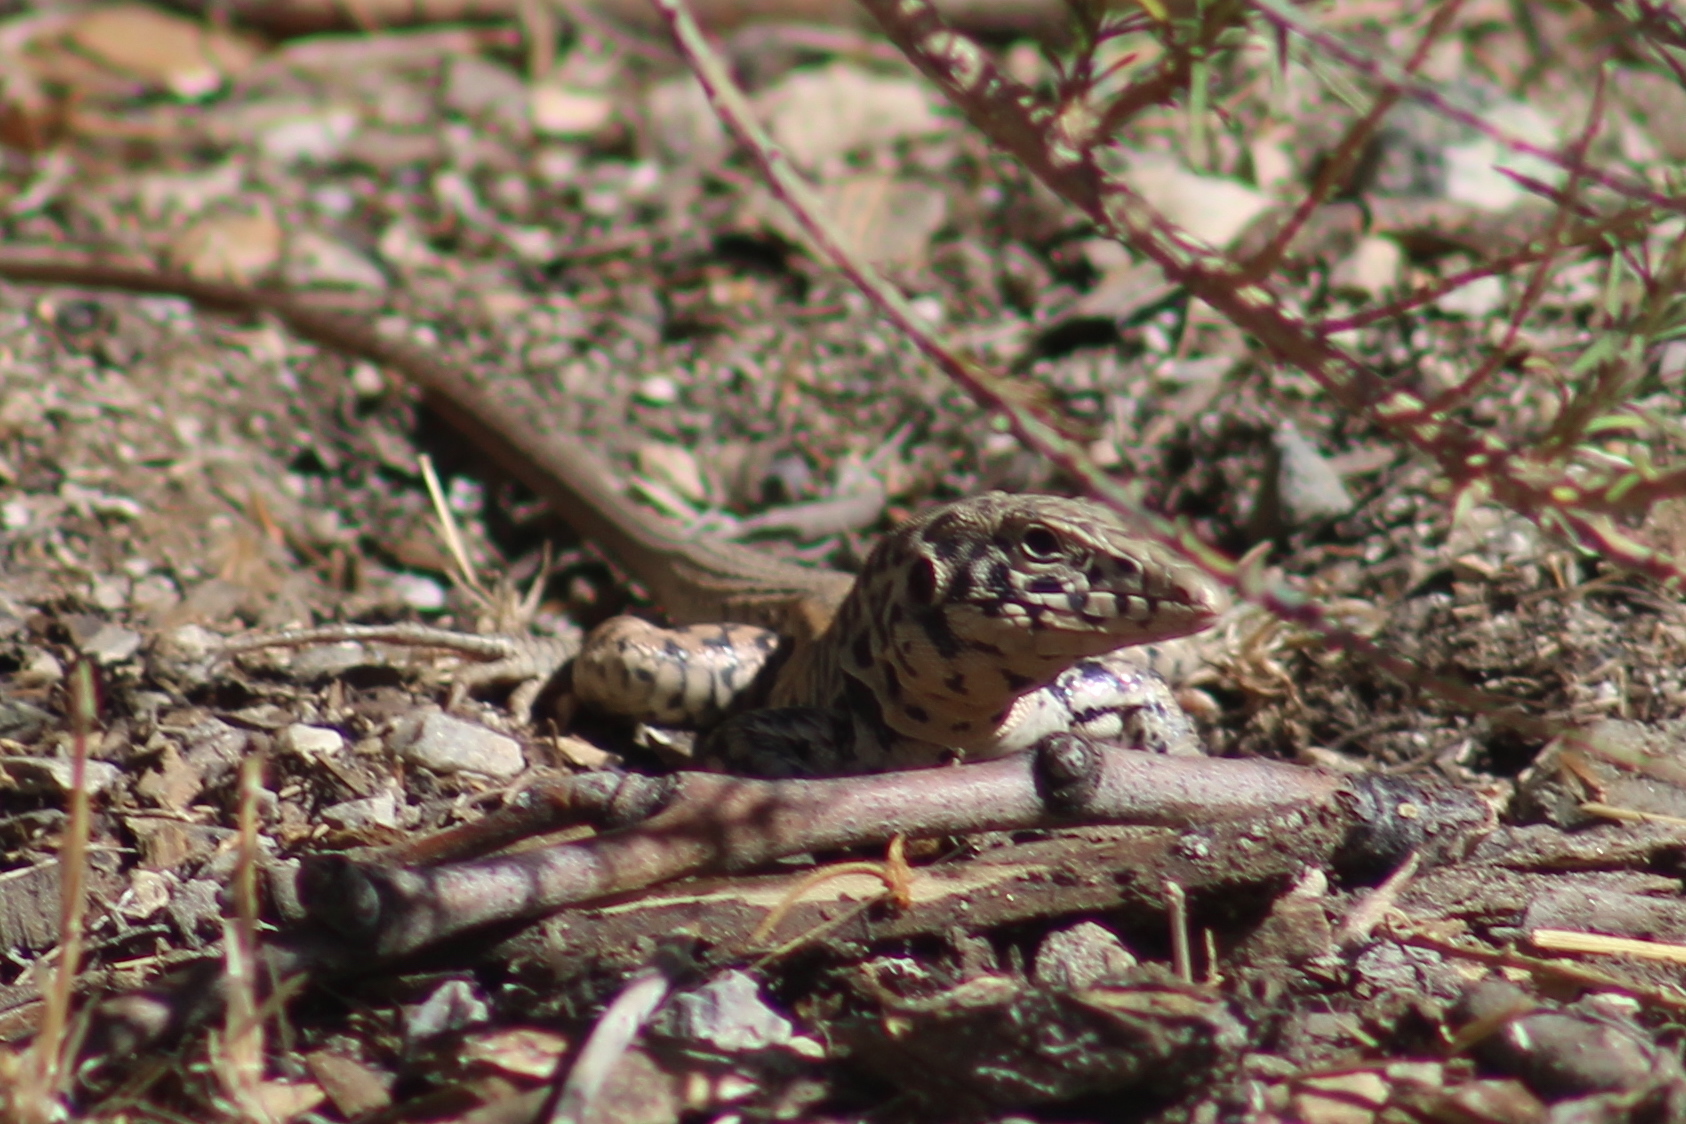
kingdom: Animalia
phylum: Chordata
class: Squamata
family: Teiidae
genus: Aspidoscelis
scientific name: Aspidoscelis tigris
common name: Tiger whiptail
